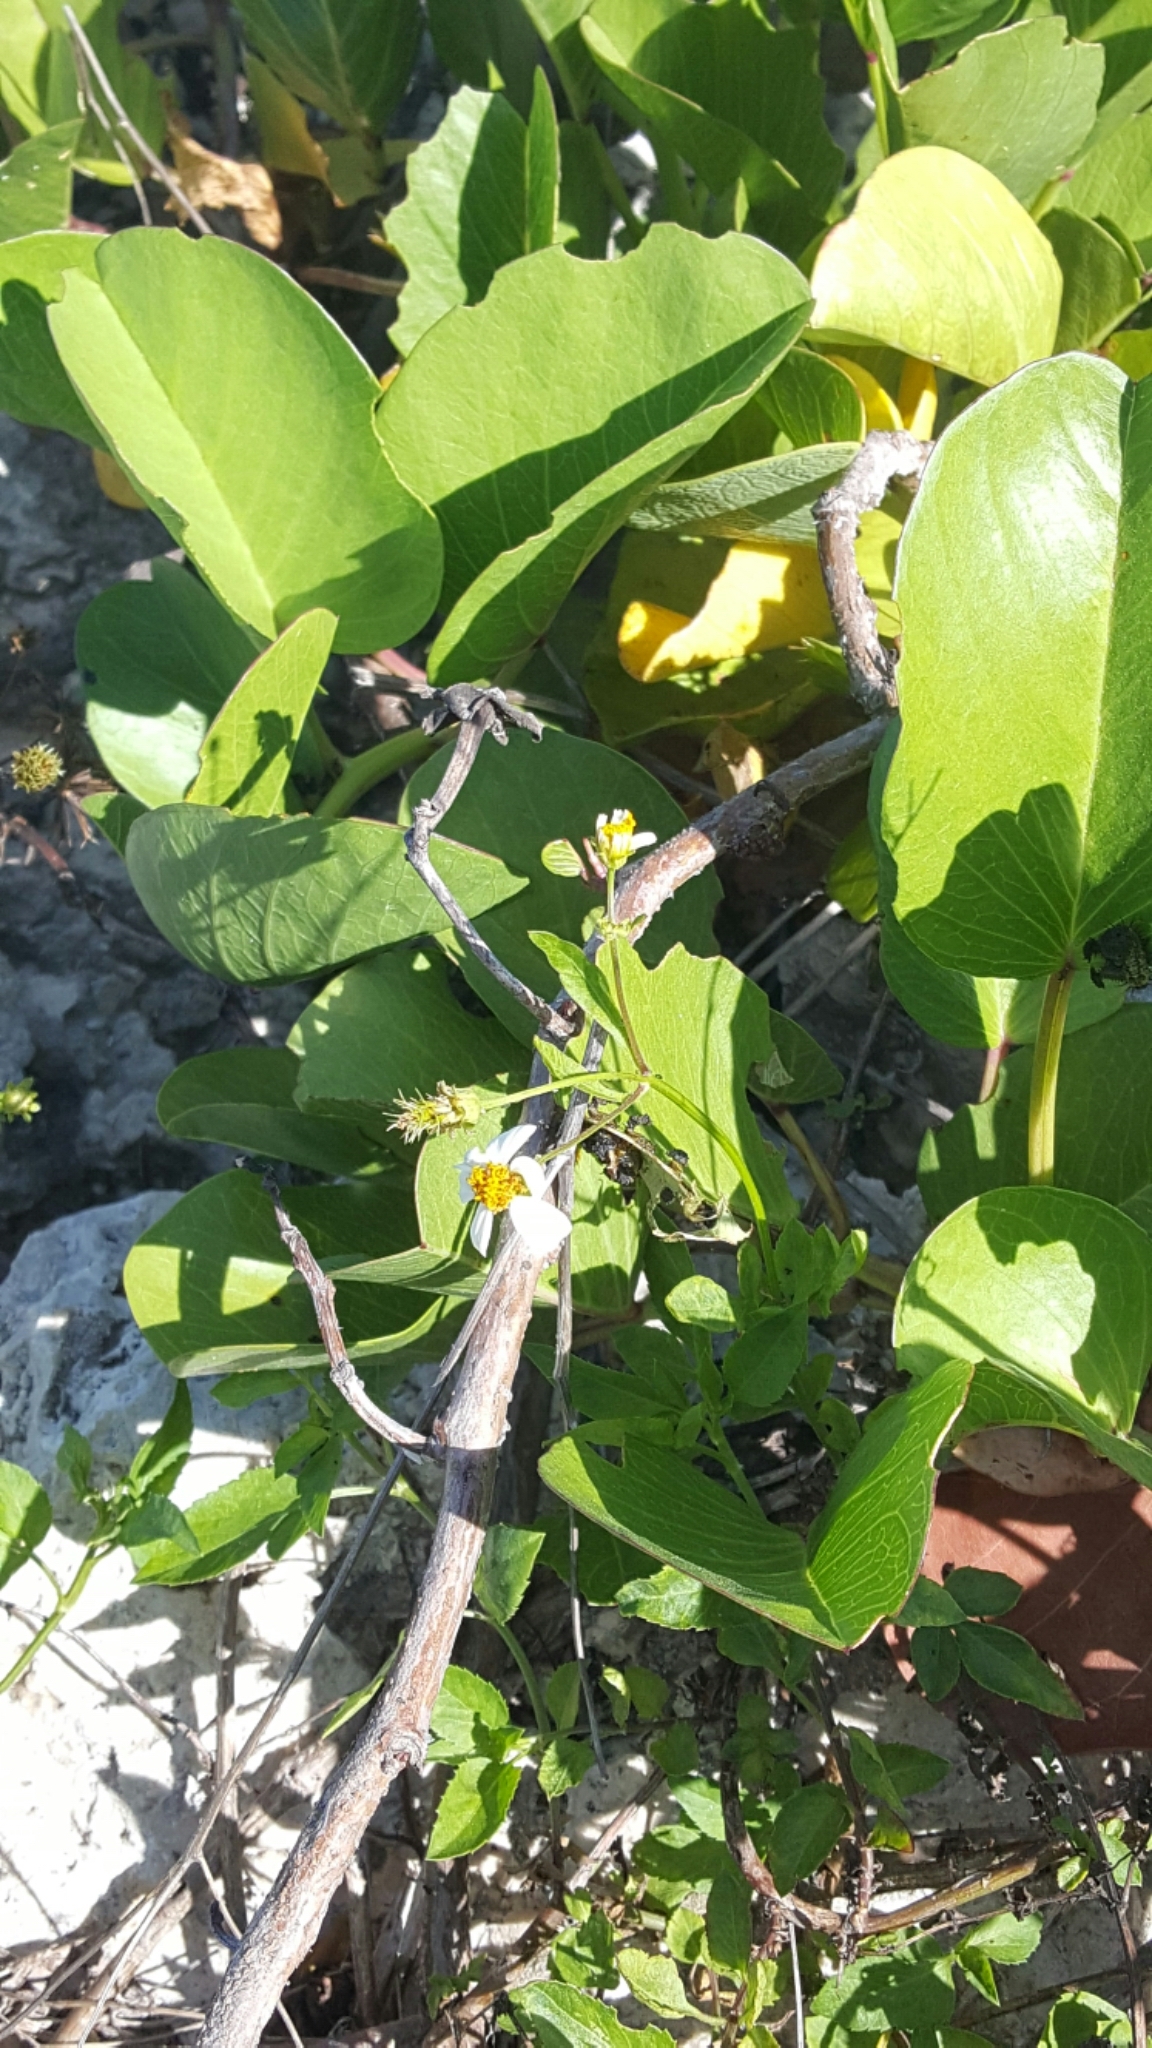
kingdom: Plantae
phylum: Tracheophyta
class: Magnoliopsida
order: Asterales
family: Asteraceae
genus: Bidens
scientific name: Bidens alba
